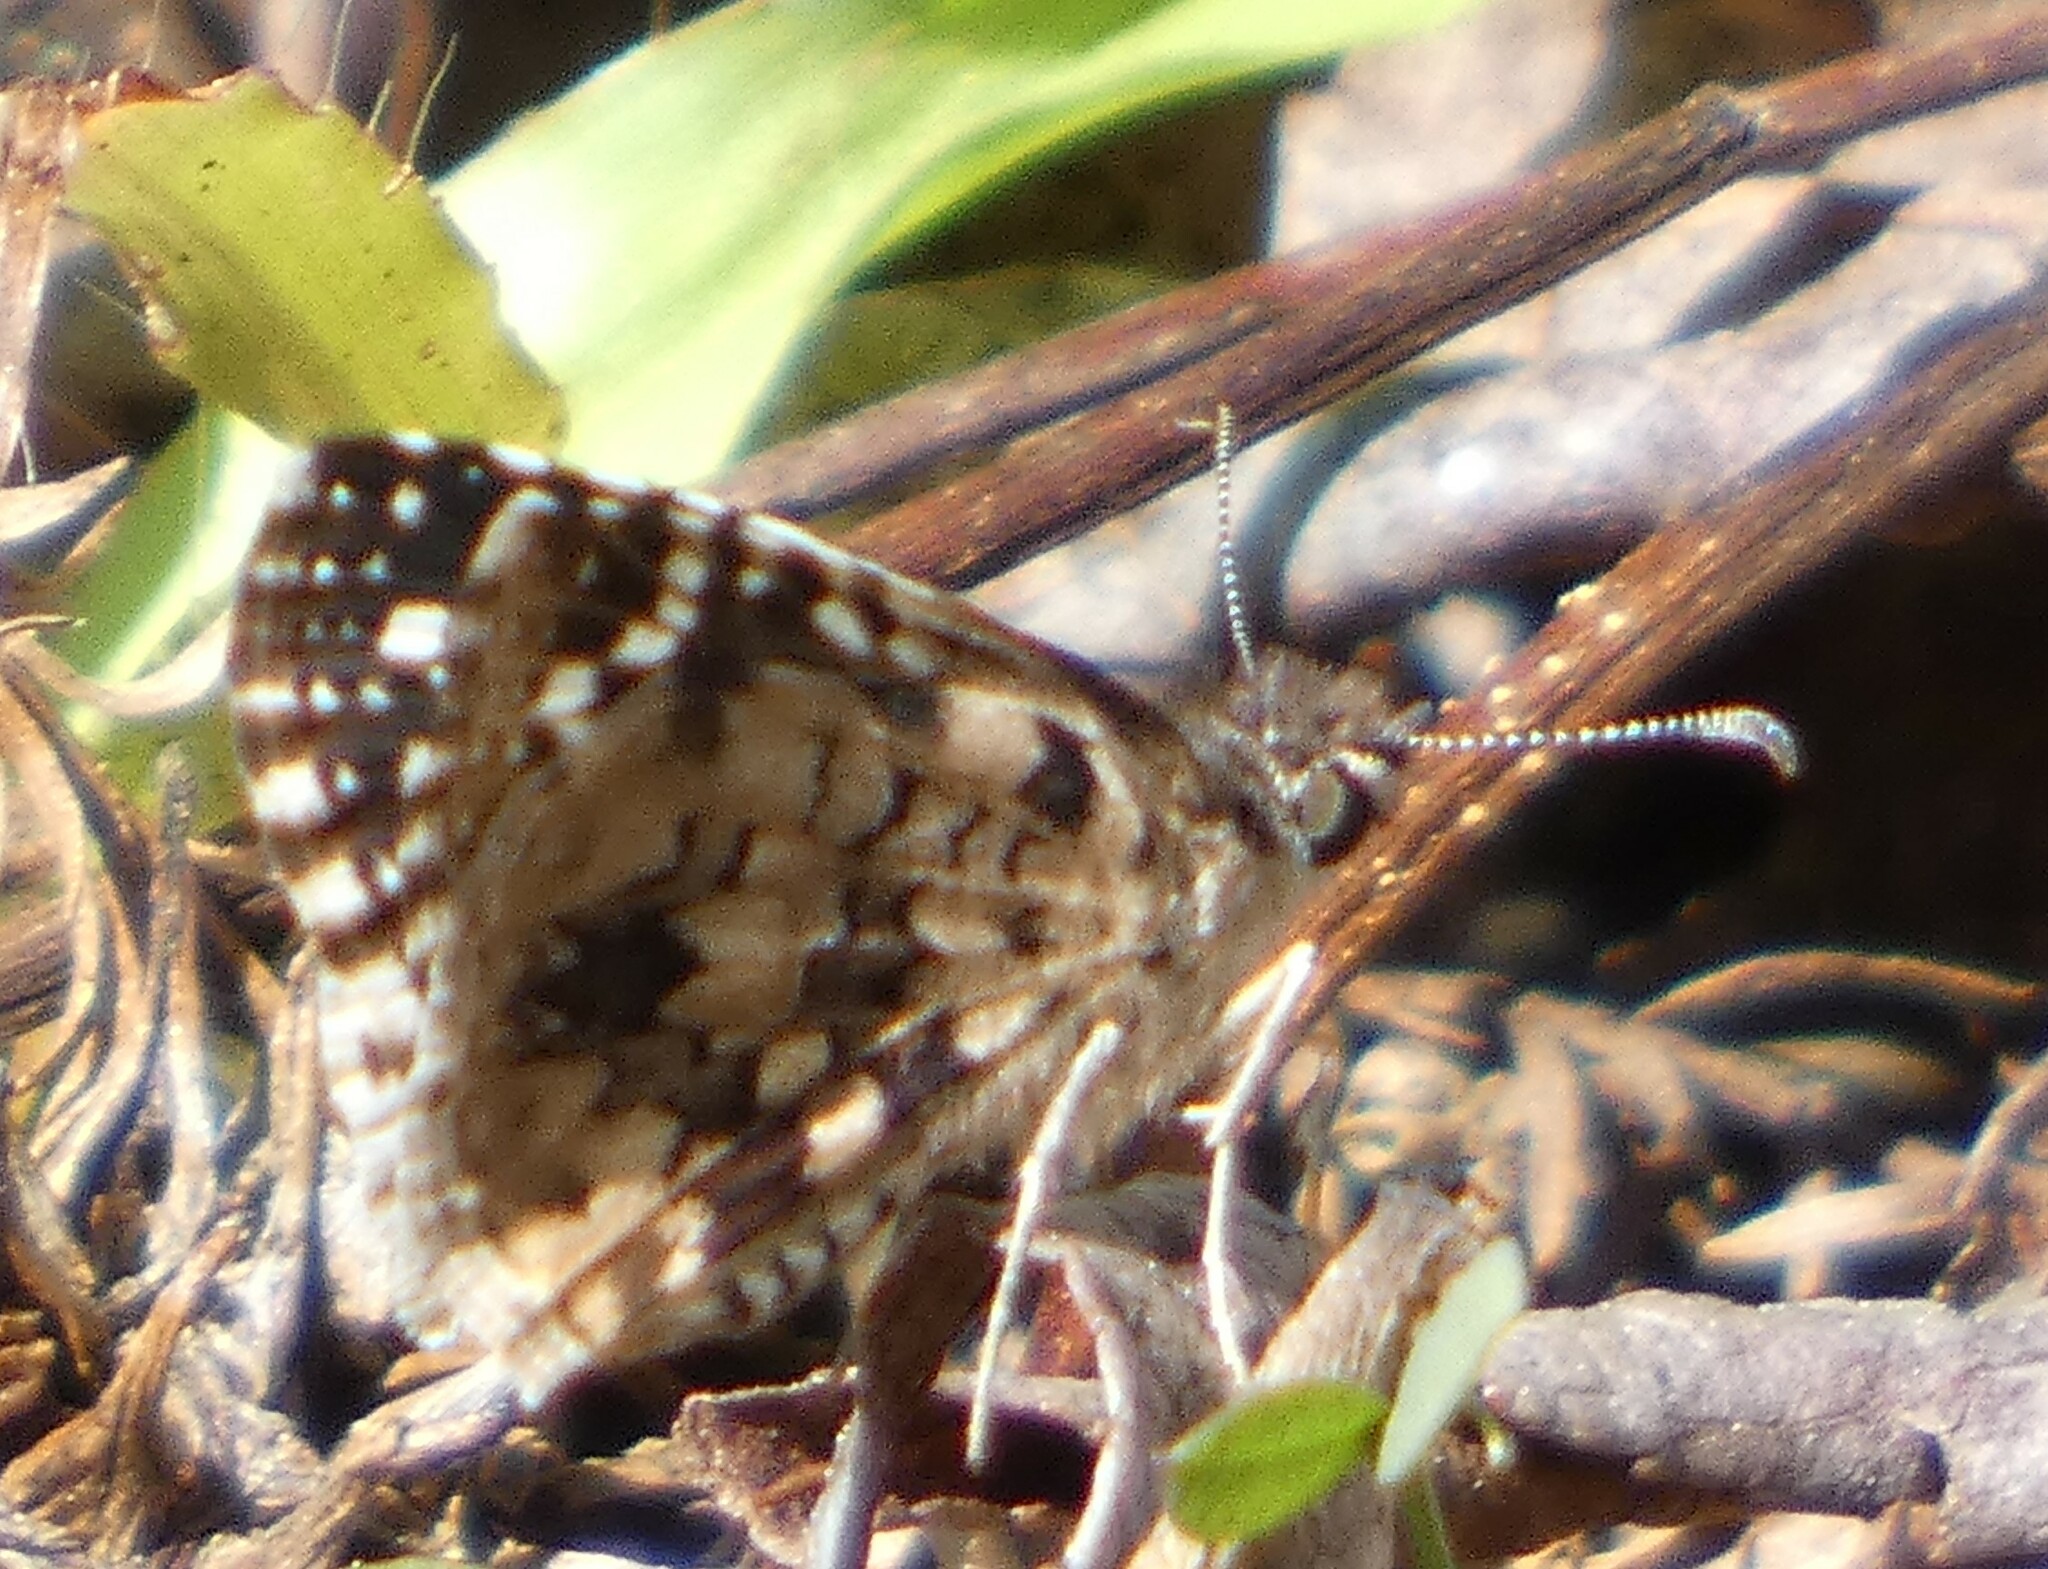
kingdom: Animalia
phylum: Arthropoda
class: Insecta
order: Lepidoptera
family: Hesperiidae
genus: Pyrgus
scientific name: Pyrgus oileus
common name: Tropical checkered-skipper
